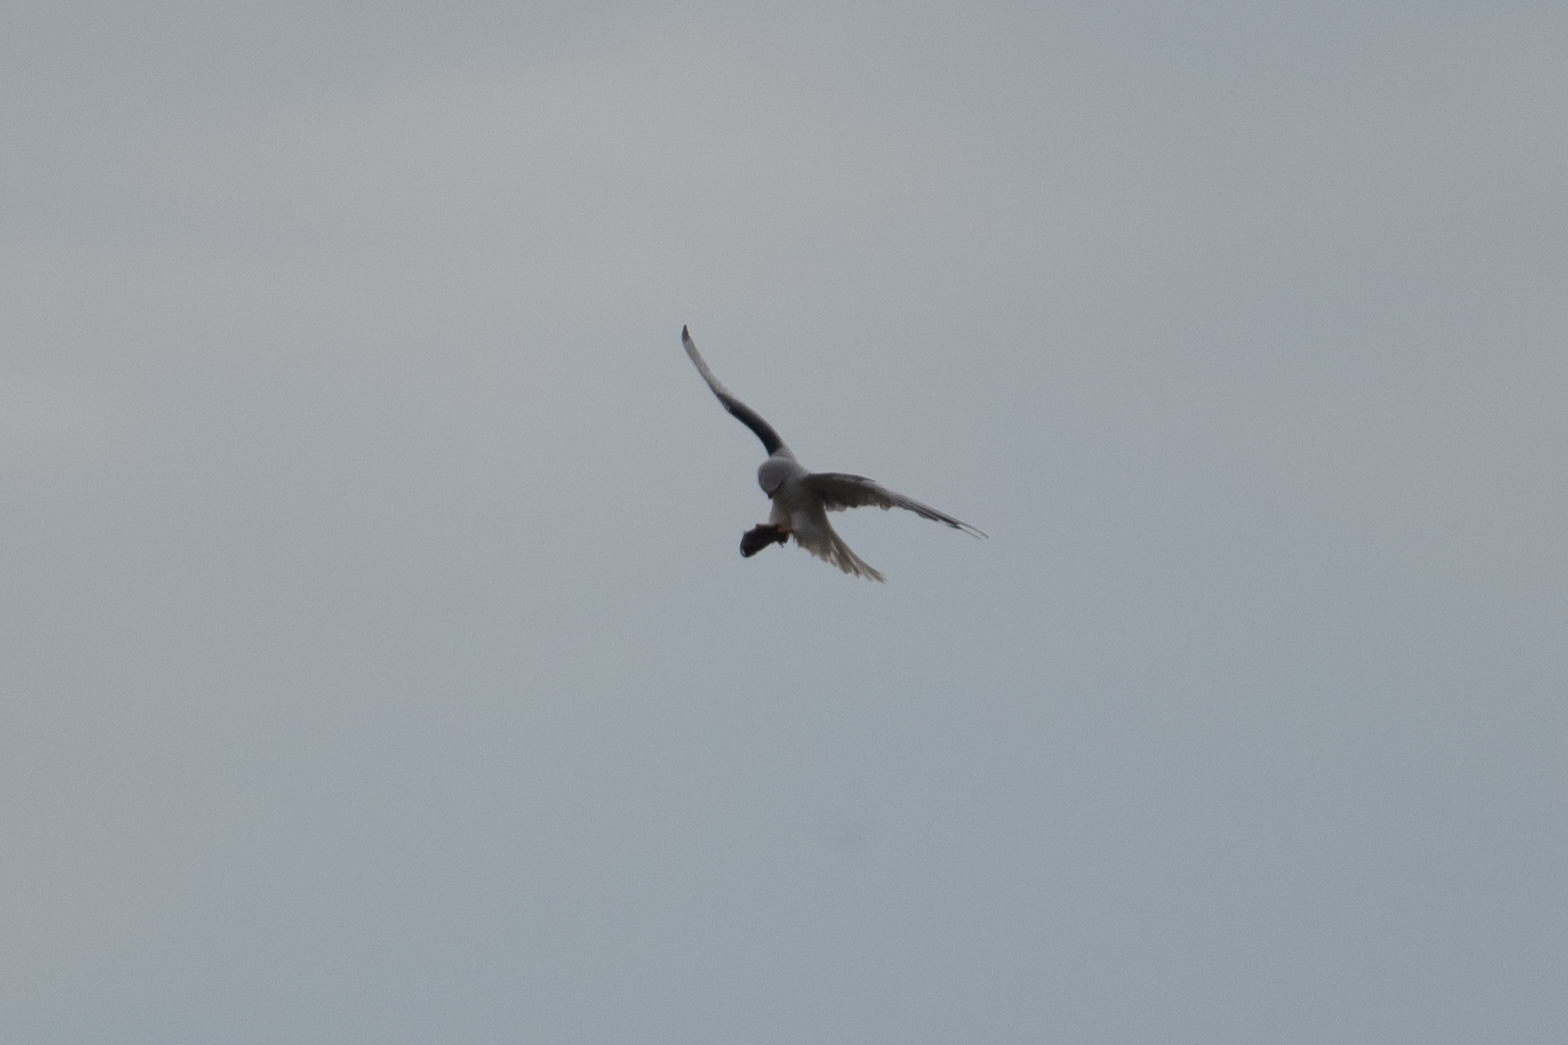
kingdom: Animalia
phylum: Chordata
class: Aves
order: Accipitriformes
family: Accipitridae
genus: Elanus
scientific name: Elanus leucurus
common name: White-tailed kite
